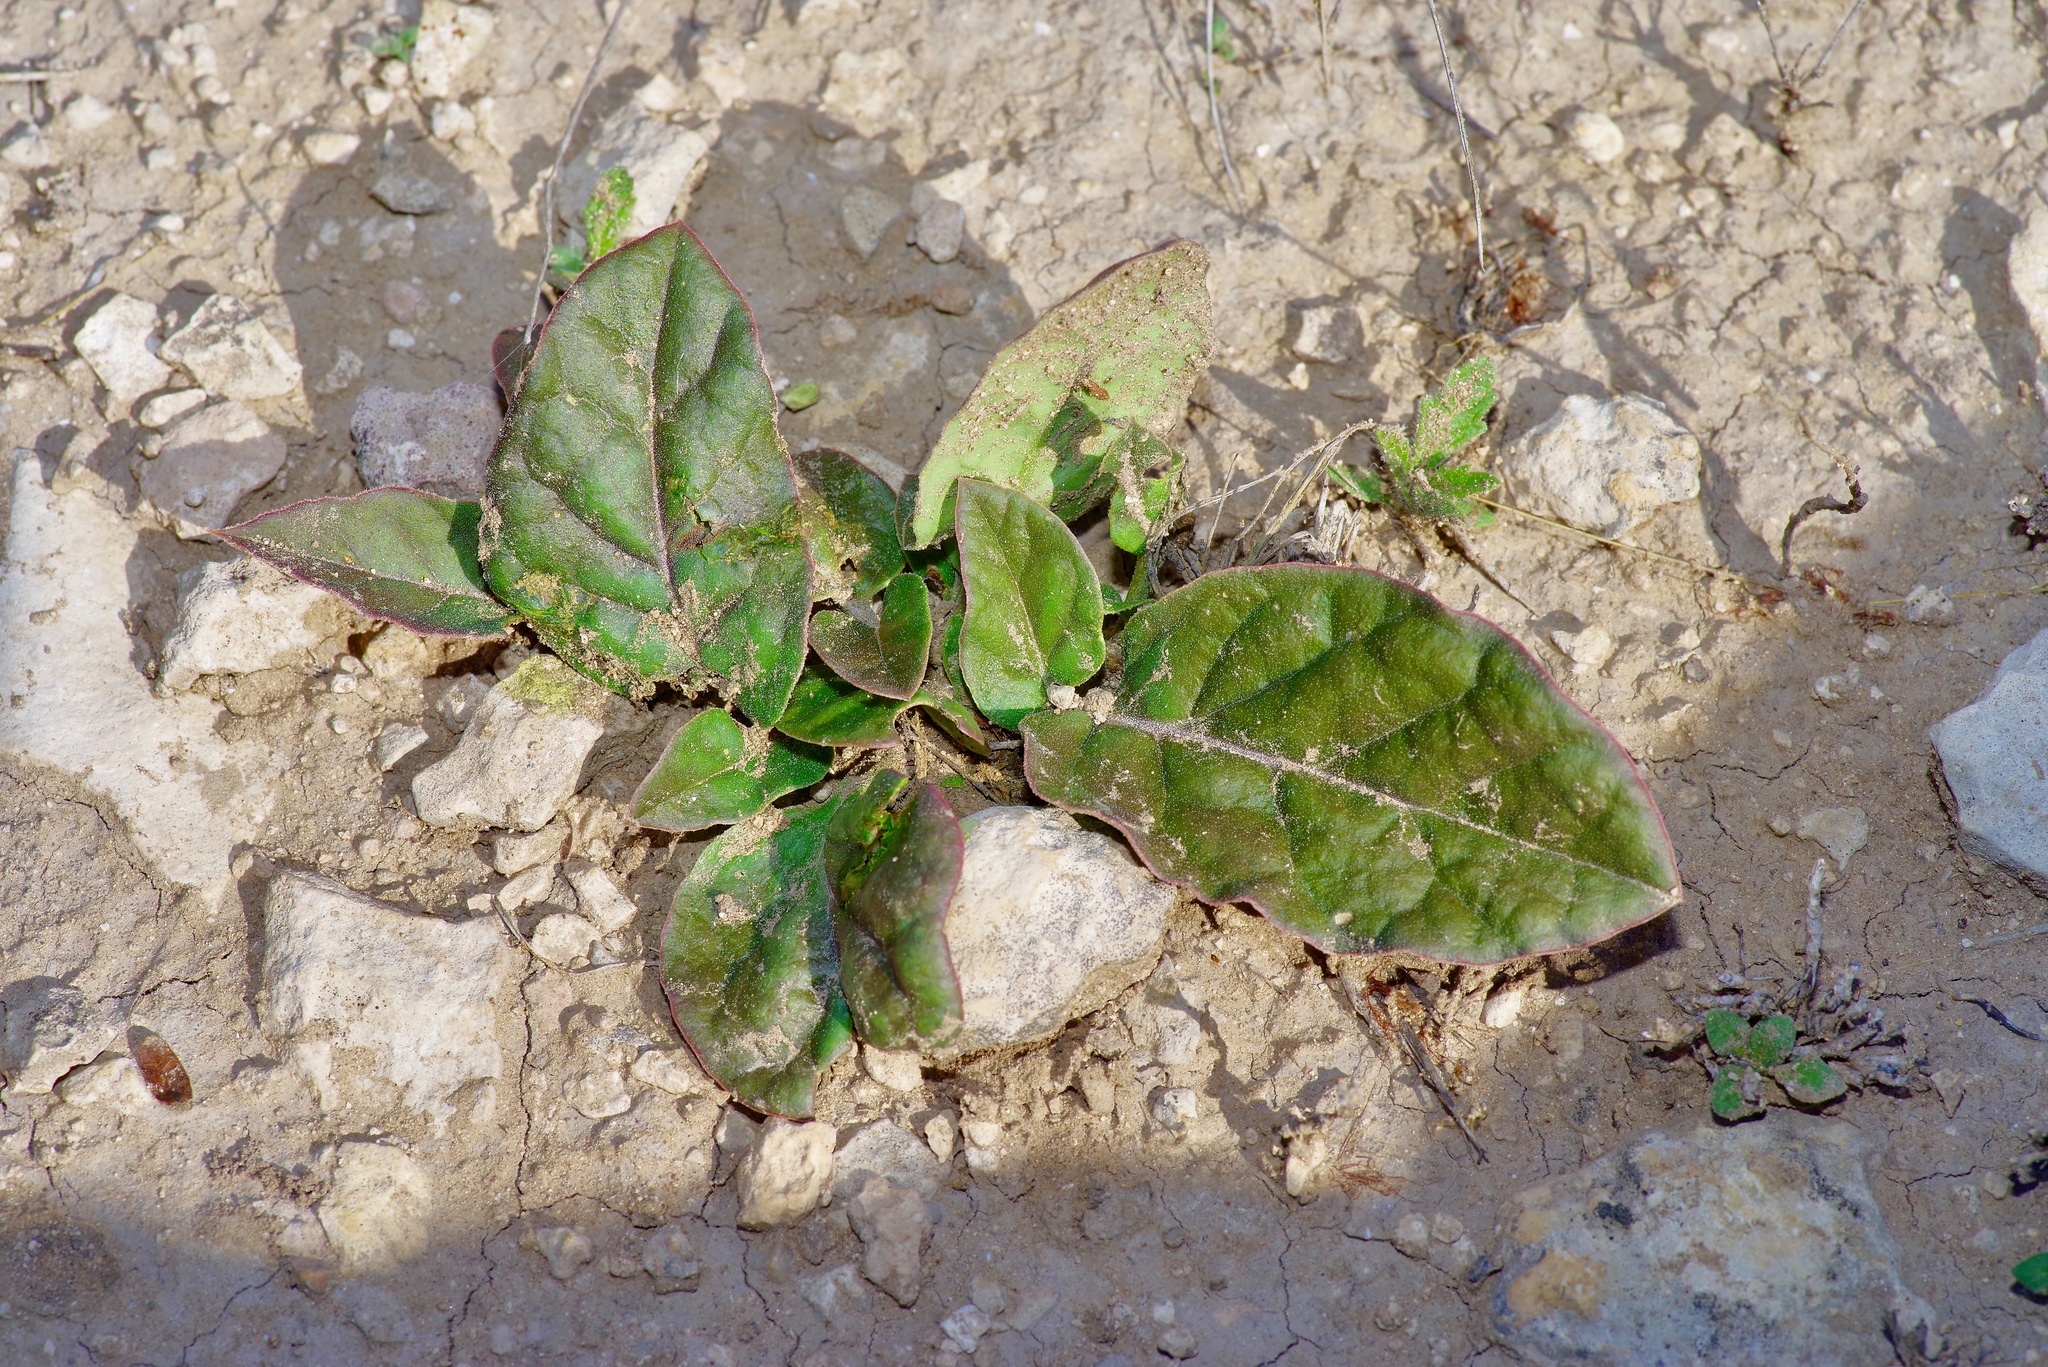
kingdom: Plantae
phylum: Tracheophyta
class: Magnoliopsida
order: Caryophyllales
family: Nyctaginaceae
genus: Acleisanthes
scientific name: Acleisanthes anisophylla
